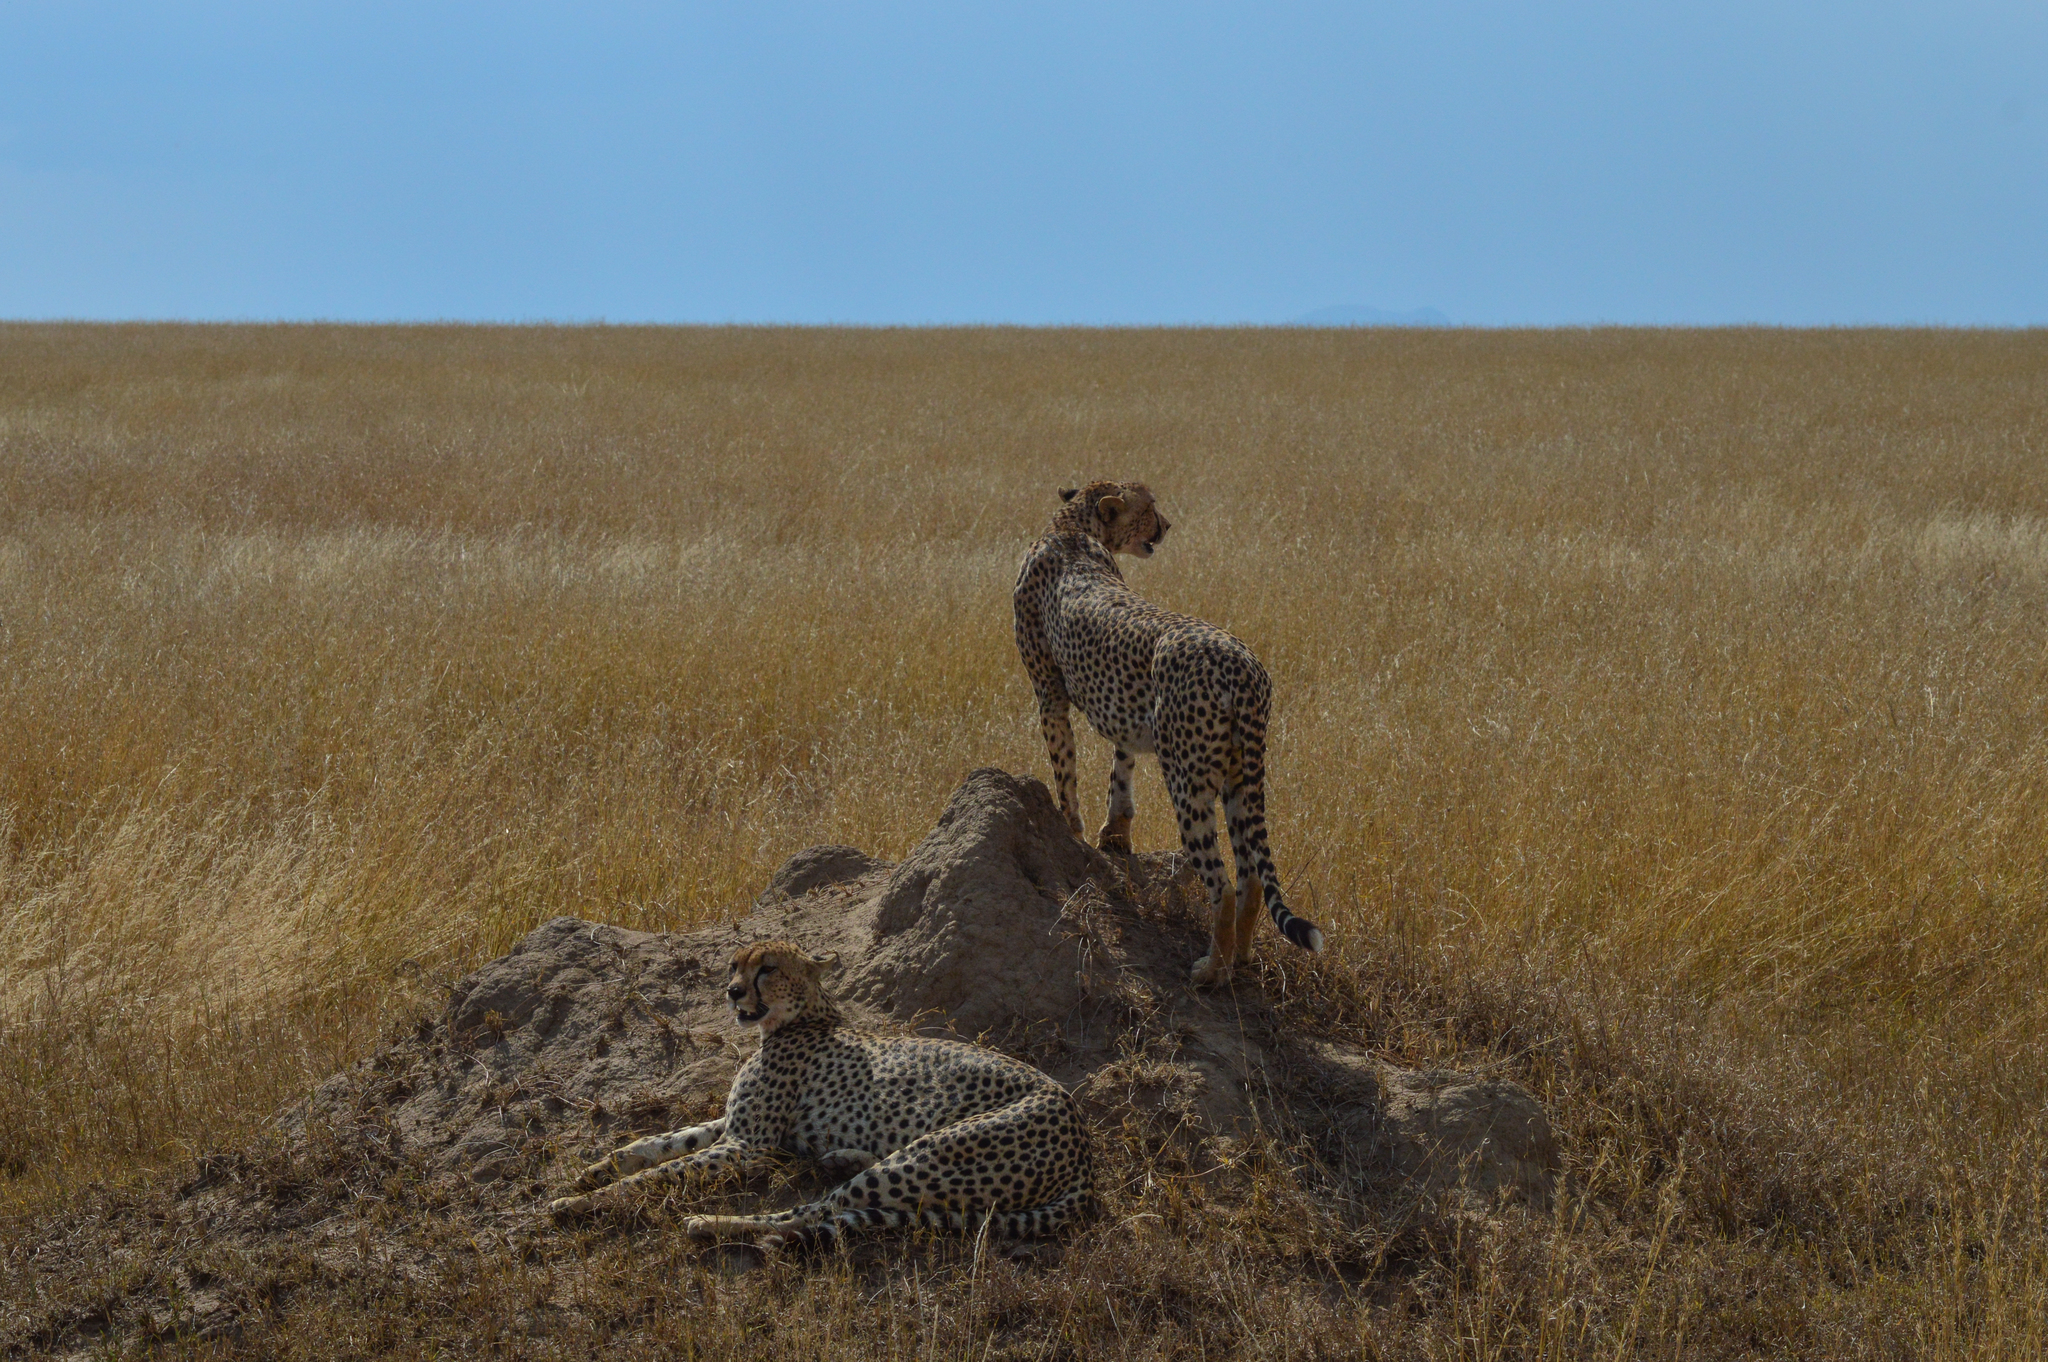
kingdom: Animalia
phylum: Chordata
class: Mammalia
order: Carnivora
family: Felidae
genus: Acinonyx
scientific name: Acinonyx jubatus
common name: Cheetah
